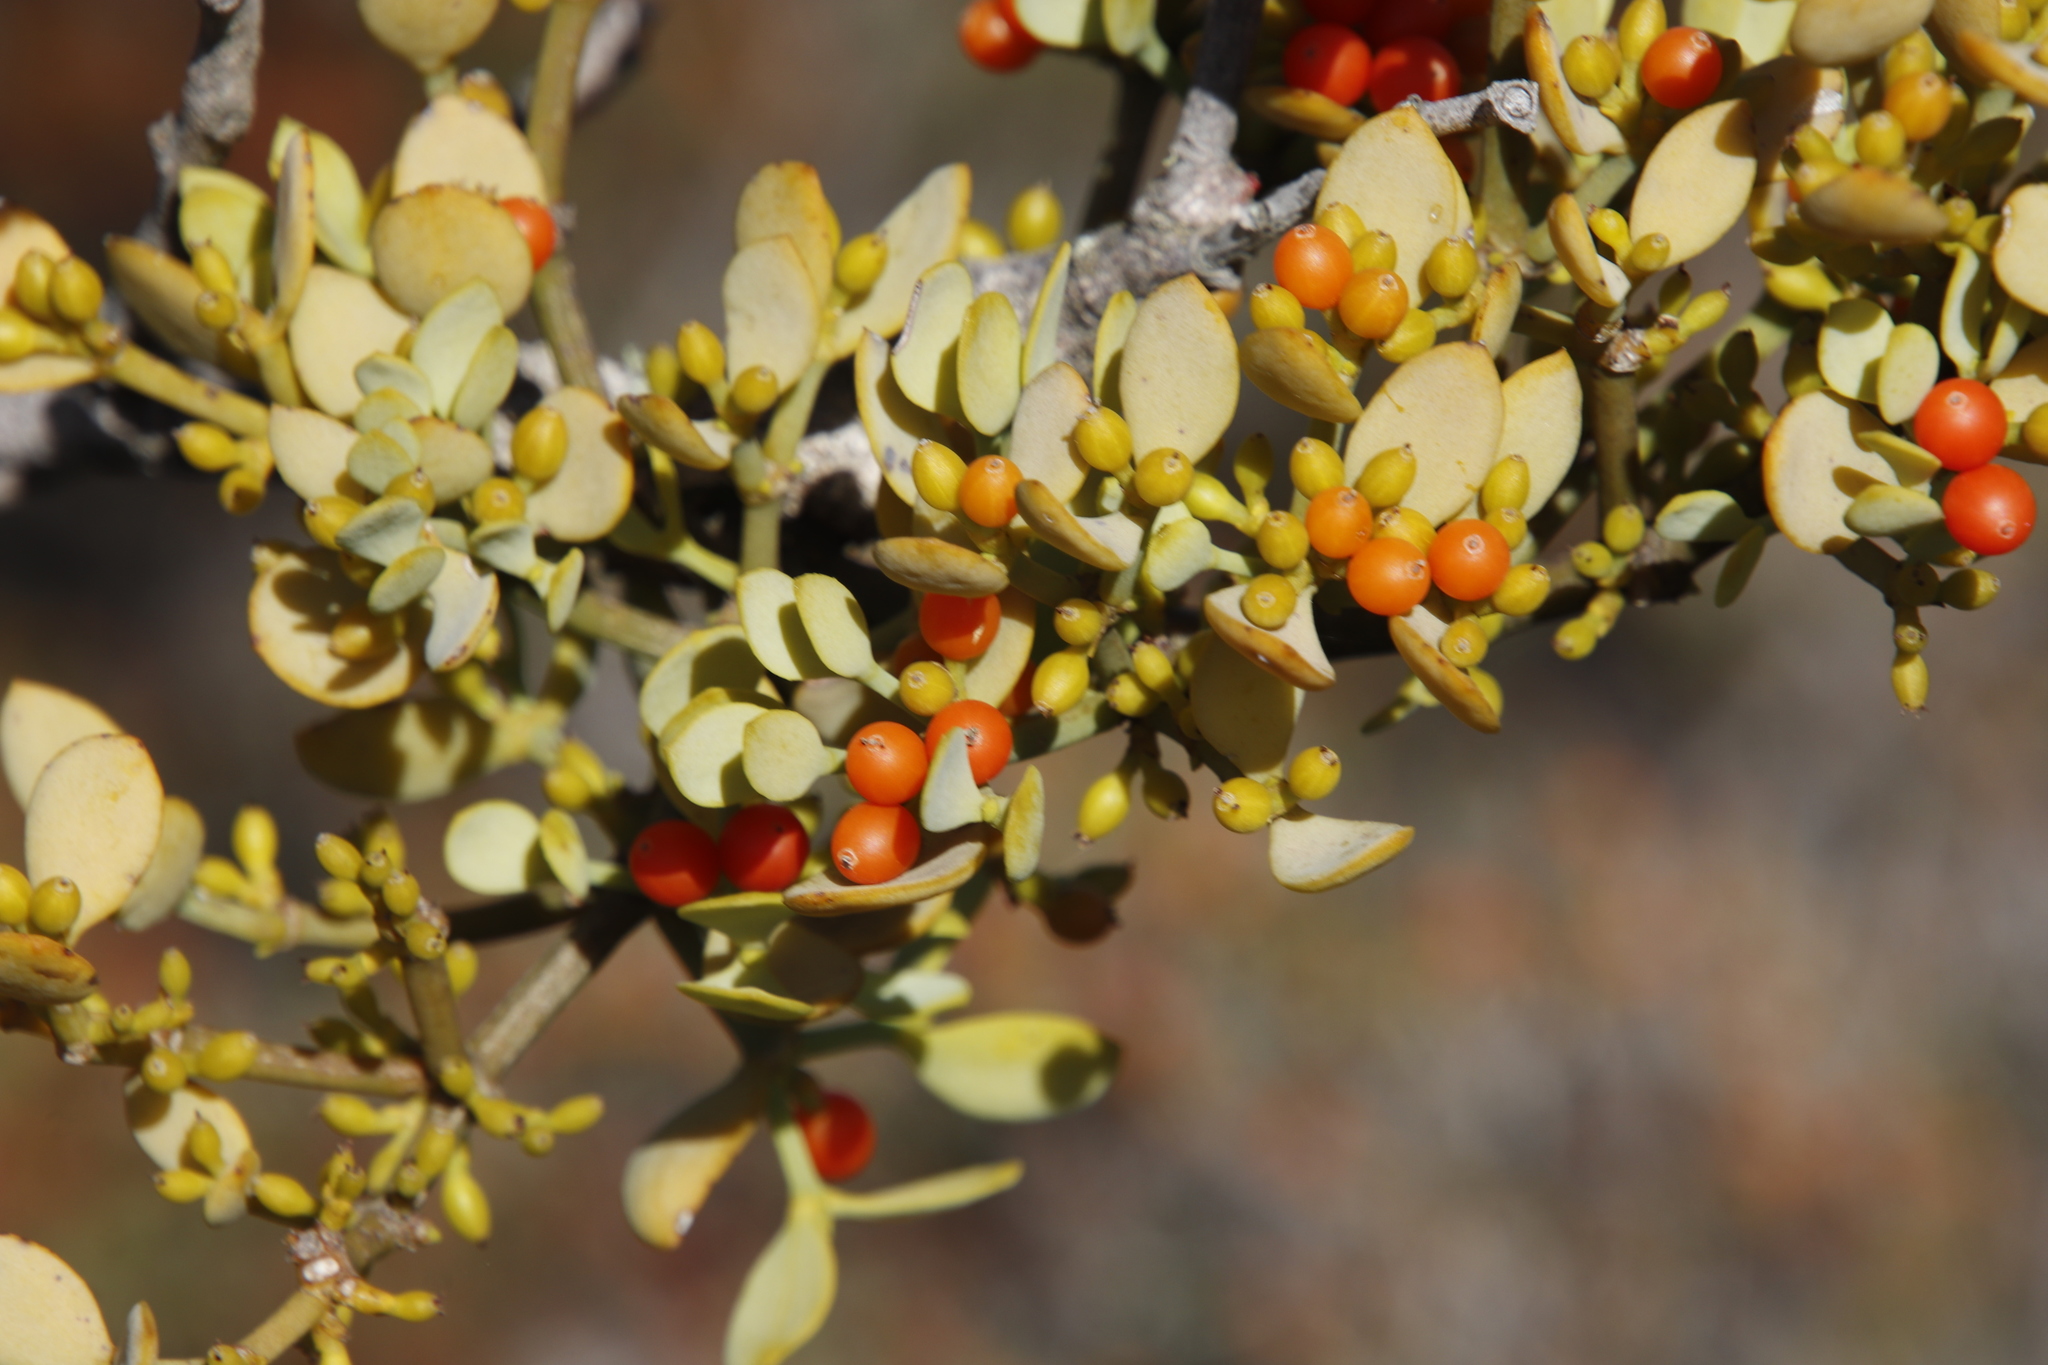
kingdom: Plantae
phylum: Tracheophyta
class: Magnoliopsida
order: Santalales
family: Viscaceae
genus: Viscum
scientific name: Viscum pauciflorum
